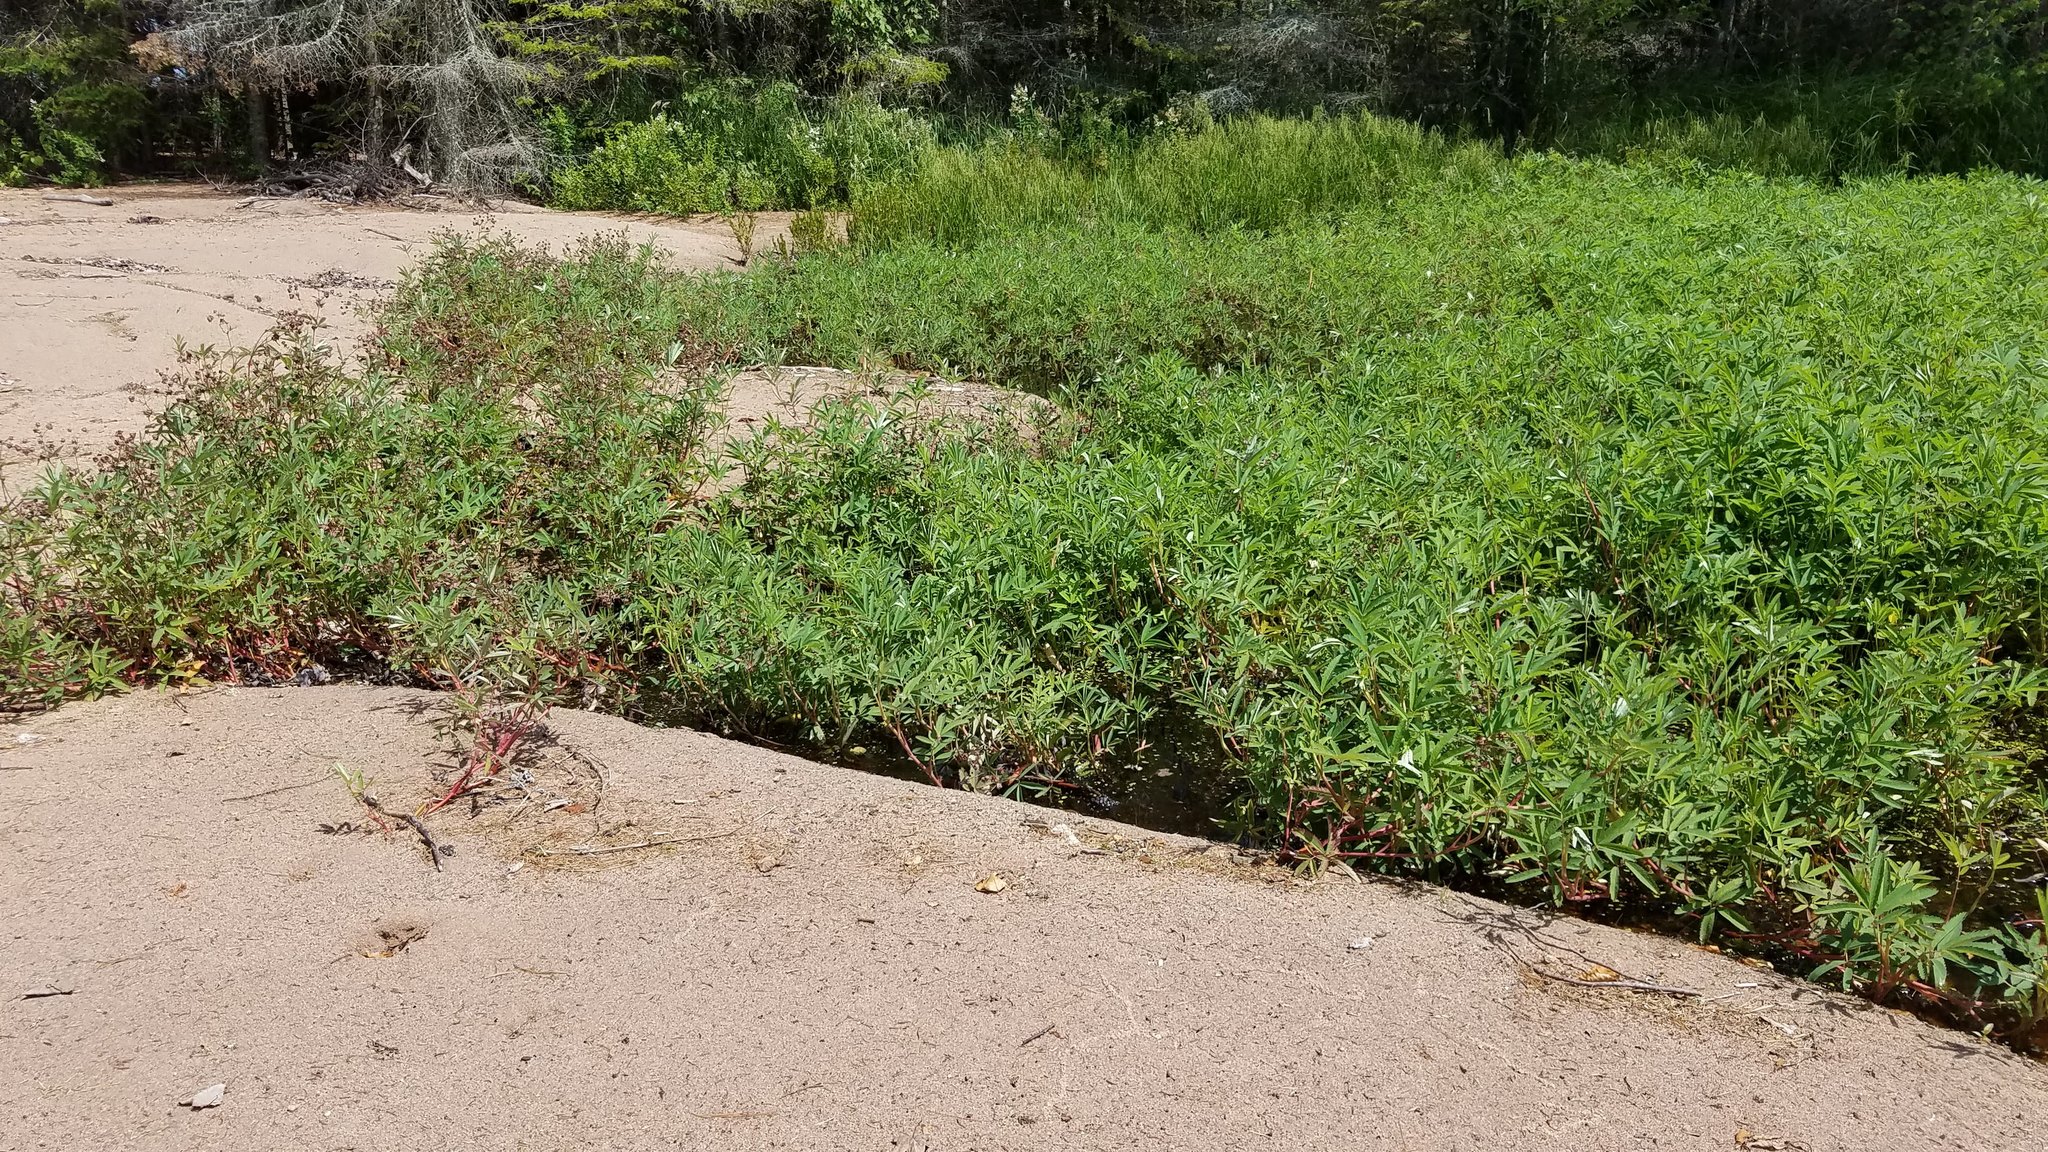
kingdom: Plantae
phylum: Tracheophyta
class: Magnoliopsida
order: Rosales
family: Rosaceae
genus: Comarum
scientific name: Comarum palustre
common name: Marsh cinquefoil
